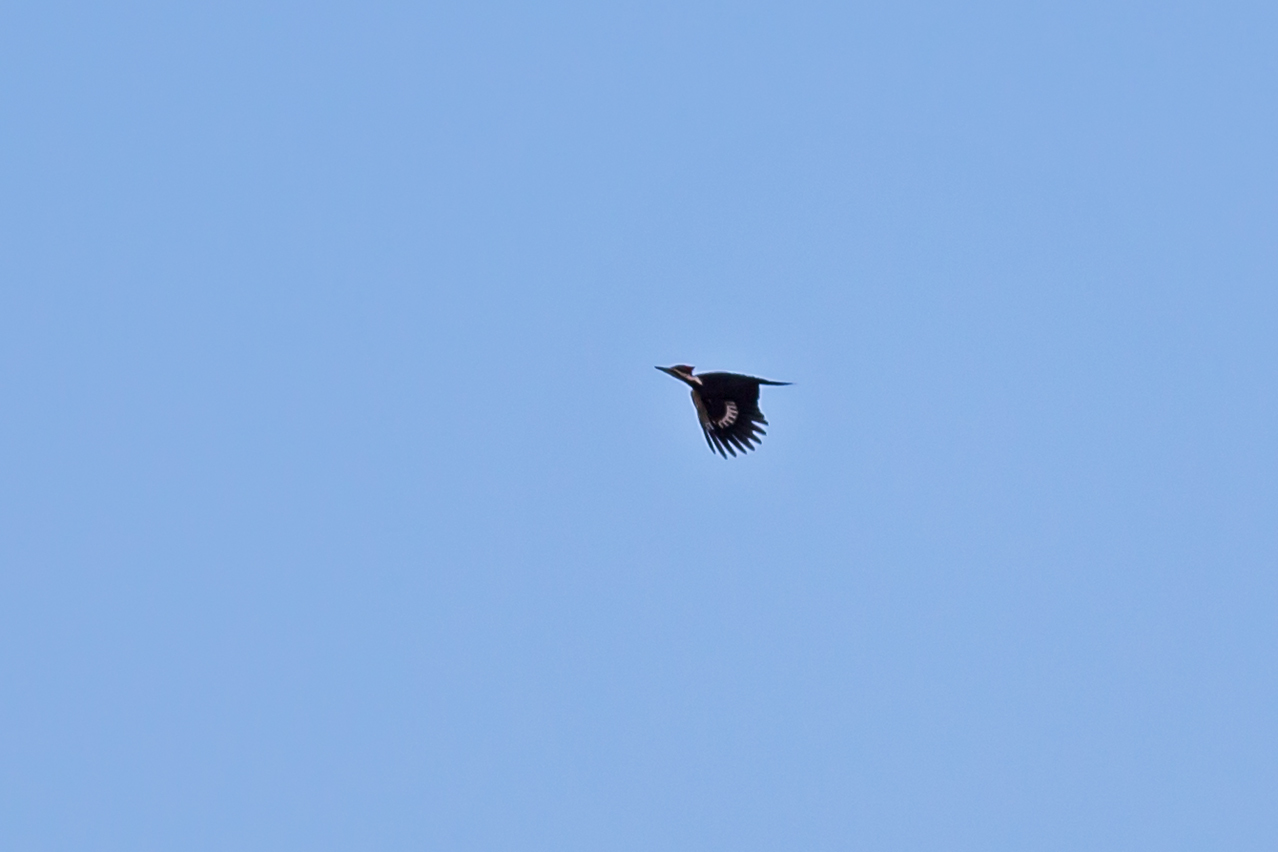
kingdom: Animalia
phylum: Chordata
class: Aves
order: Piciformes
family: Picidae
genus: Dryocopus
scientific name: Dryocopus pileatus
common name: Pileated woodpecker
